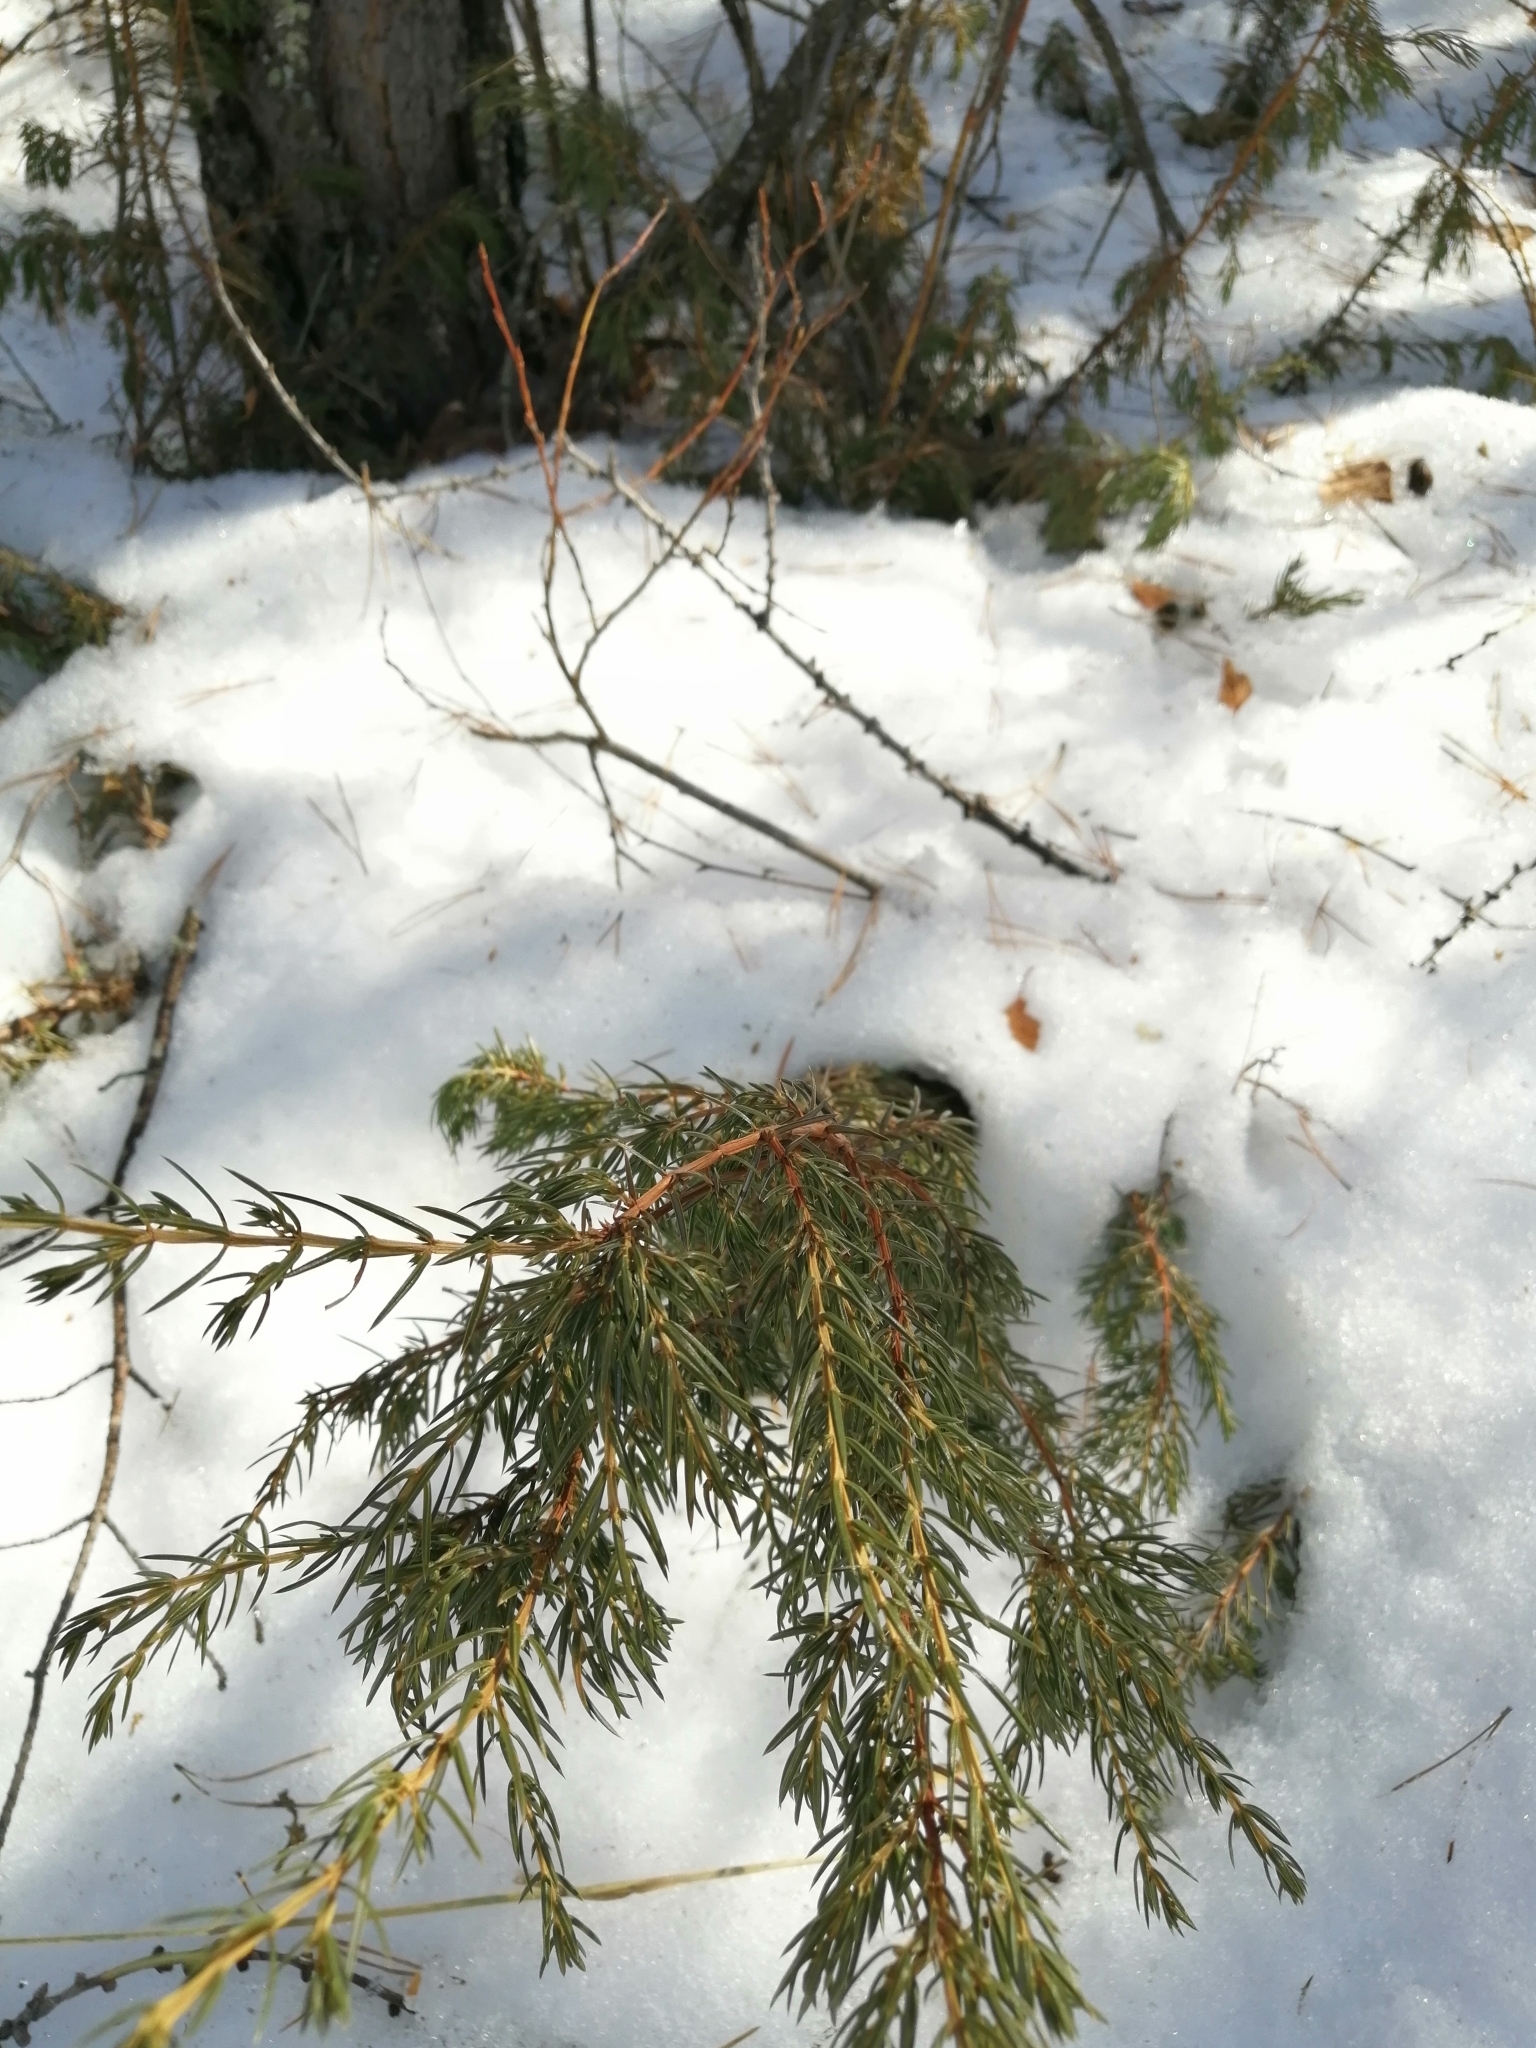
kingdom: Plantae
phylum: Tracheophyta
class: Pinopsida
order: Pinales
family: Cupressaceae
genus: Juniperus
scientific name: Juniperus communis
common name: Common juniper
